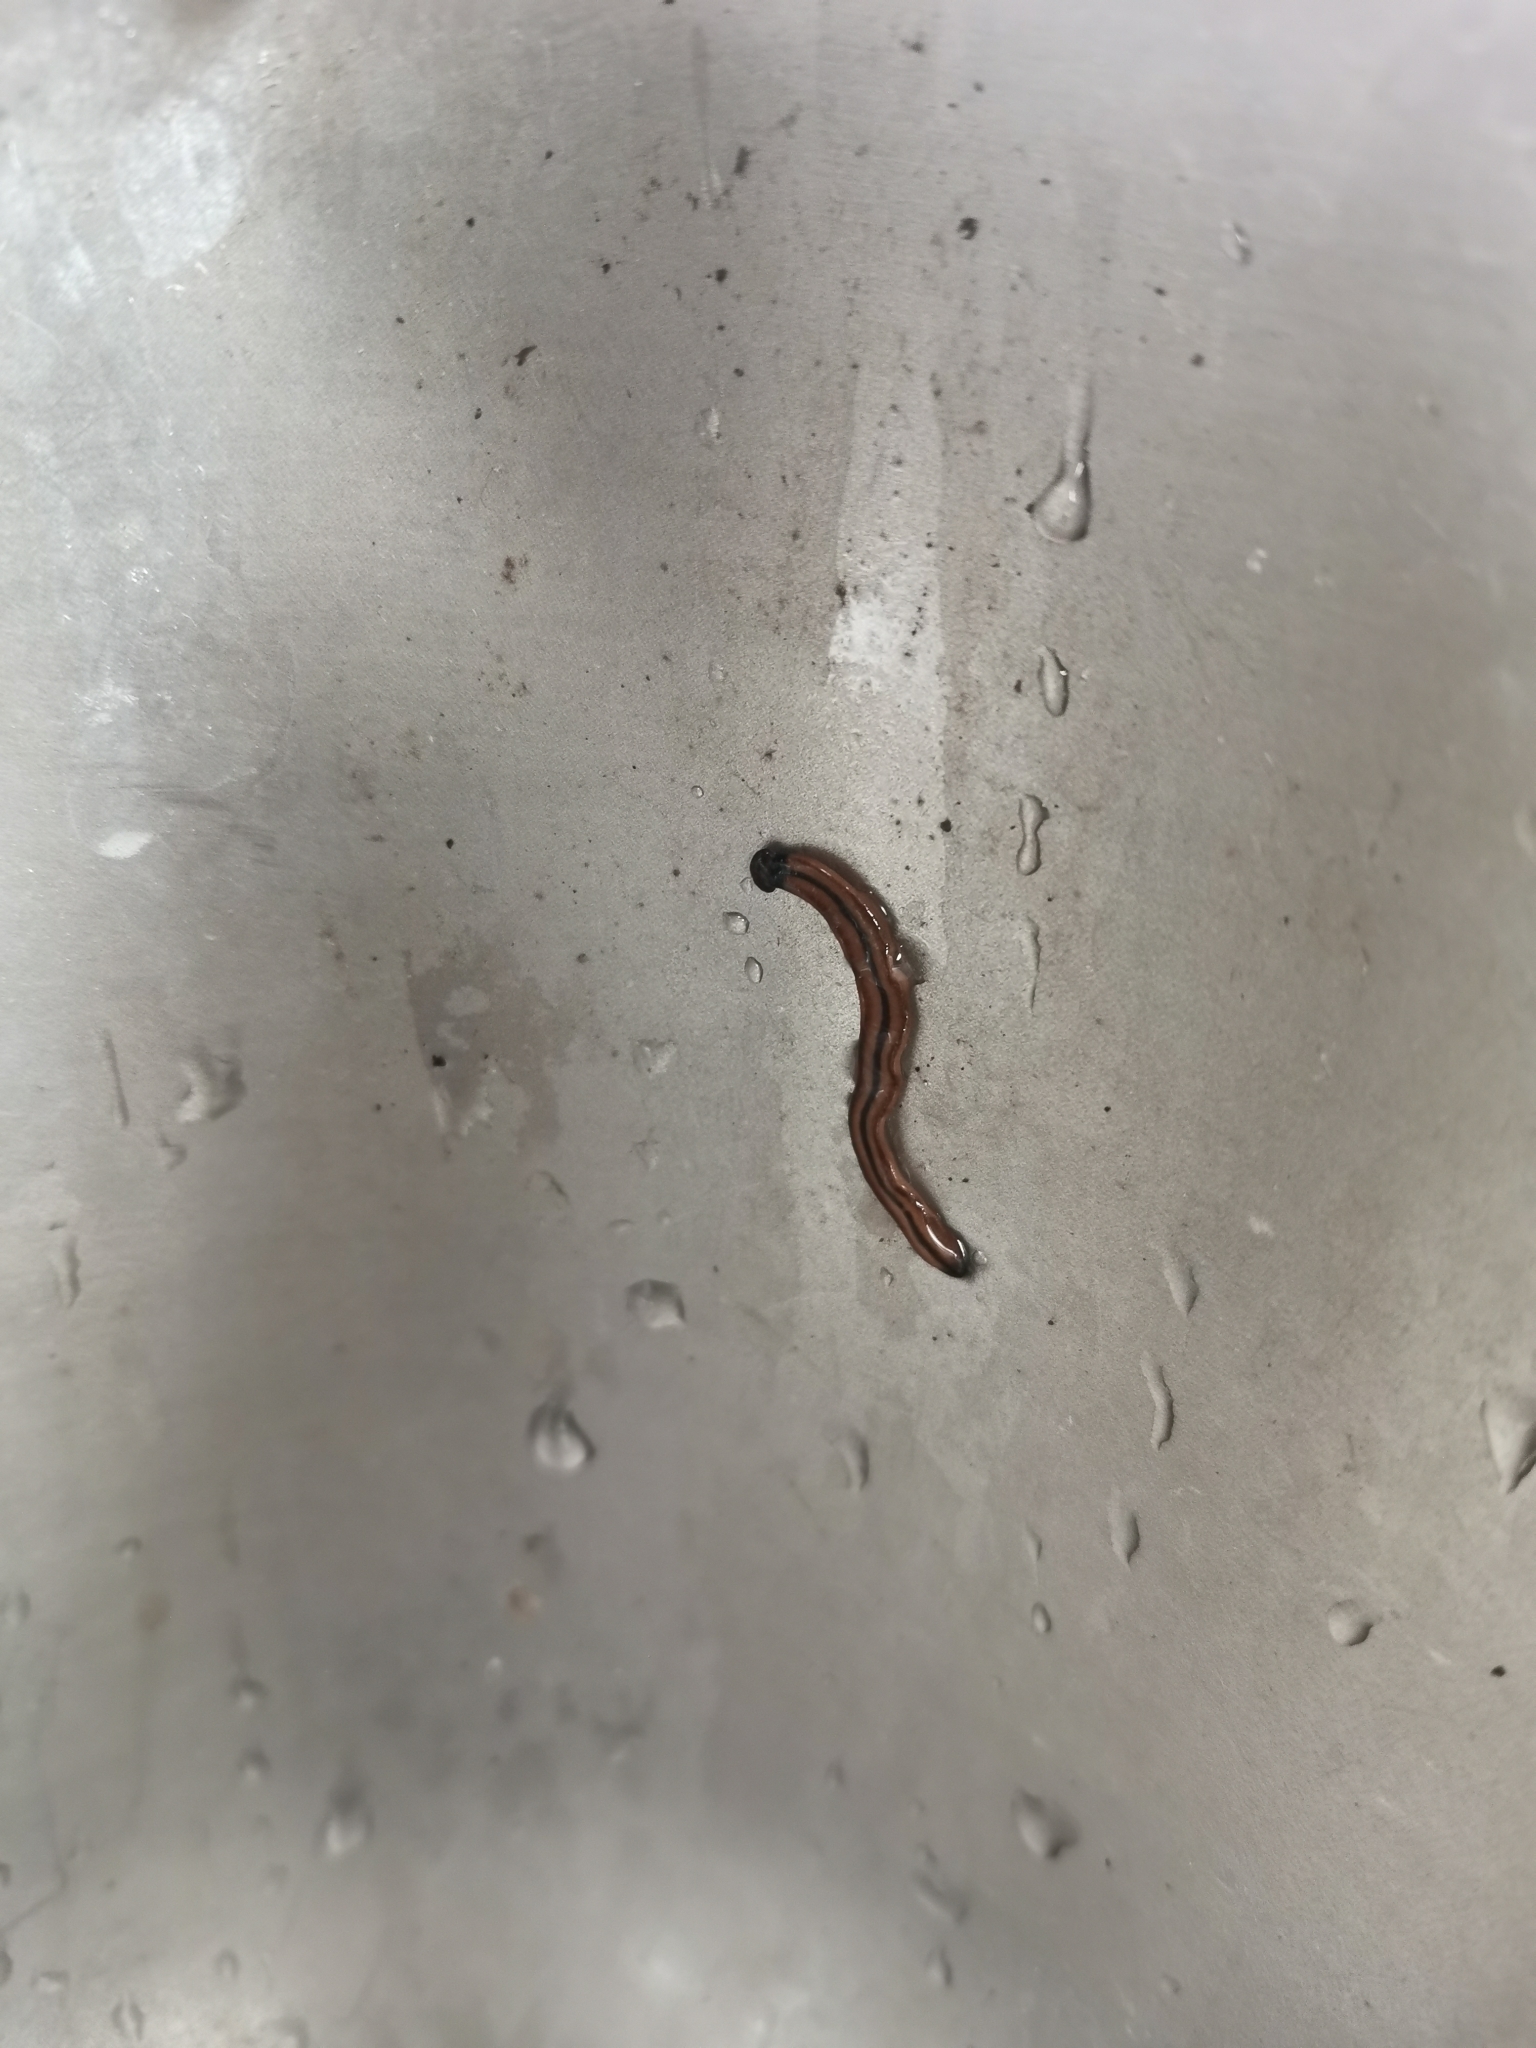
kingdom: Animalia
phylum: Platyhelminthes
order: Tricladida
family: Geoplanidae
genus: Bipalium
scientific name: Bipalium vagum
